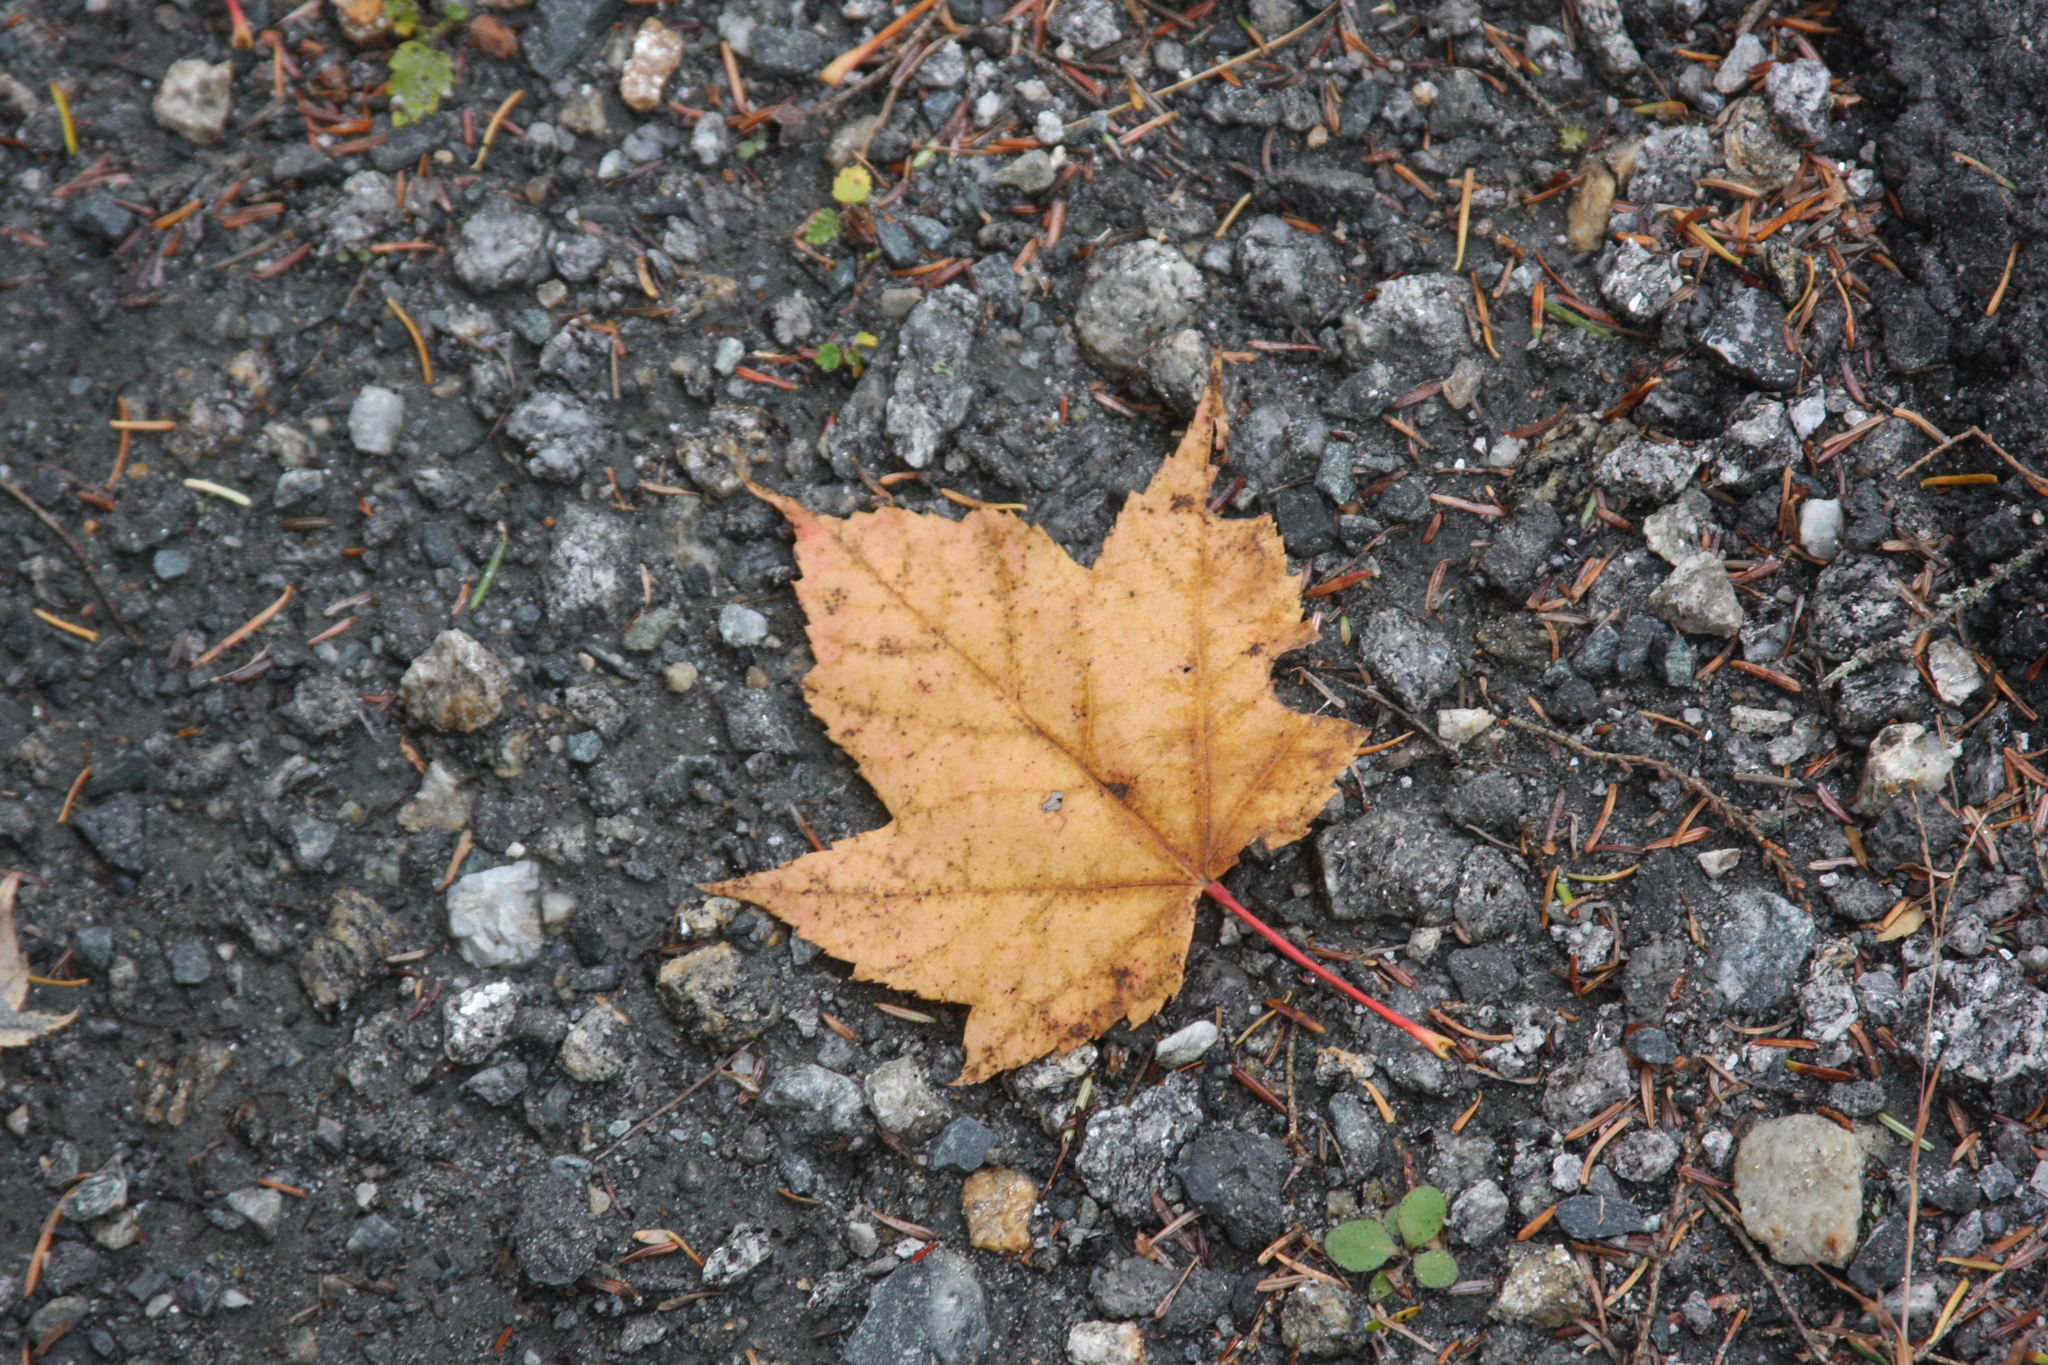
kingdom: Plantae
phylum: Tracheophyta
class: Magnoliopsida
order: Sapindales
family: Sapindaceae
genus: Acer
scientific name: Acer rubrum
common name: Red maple
